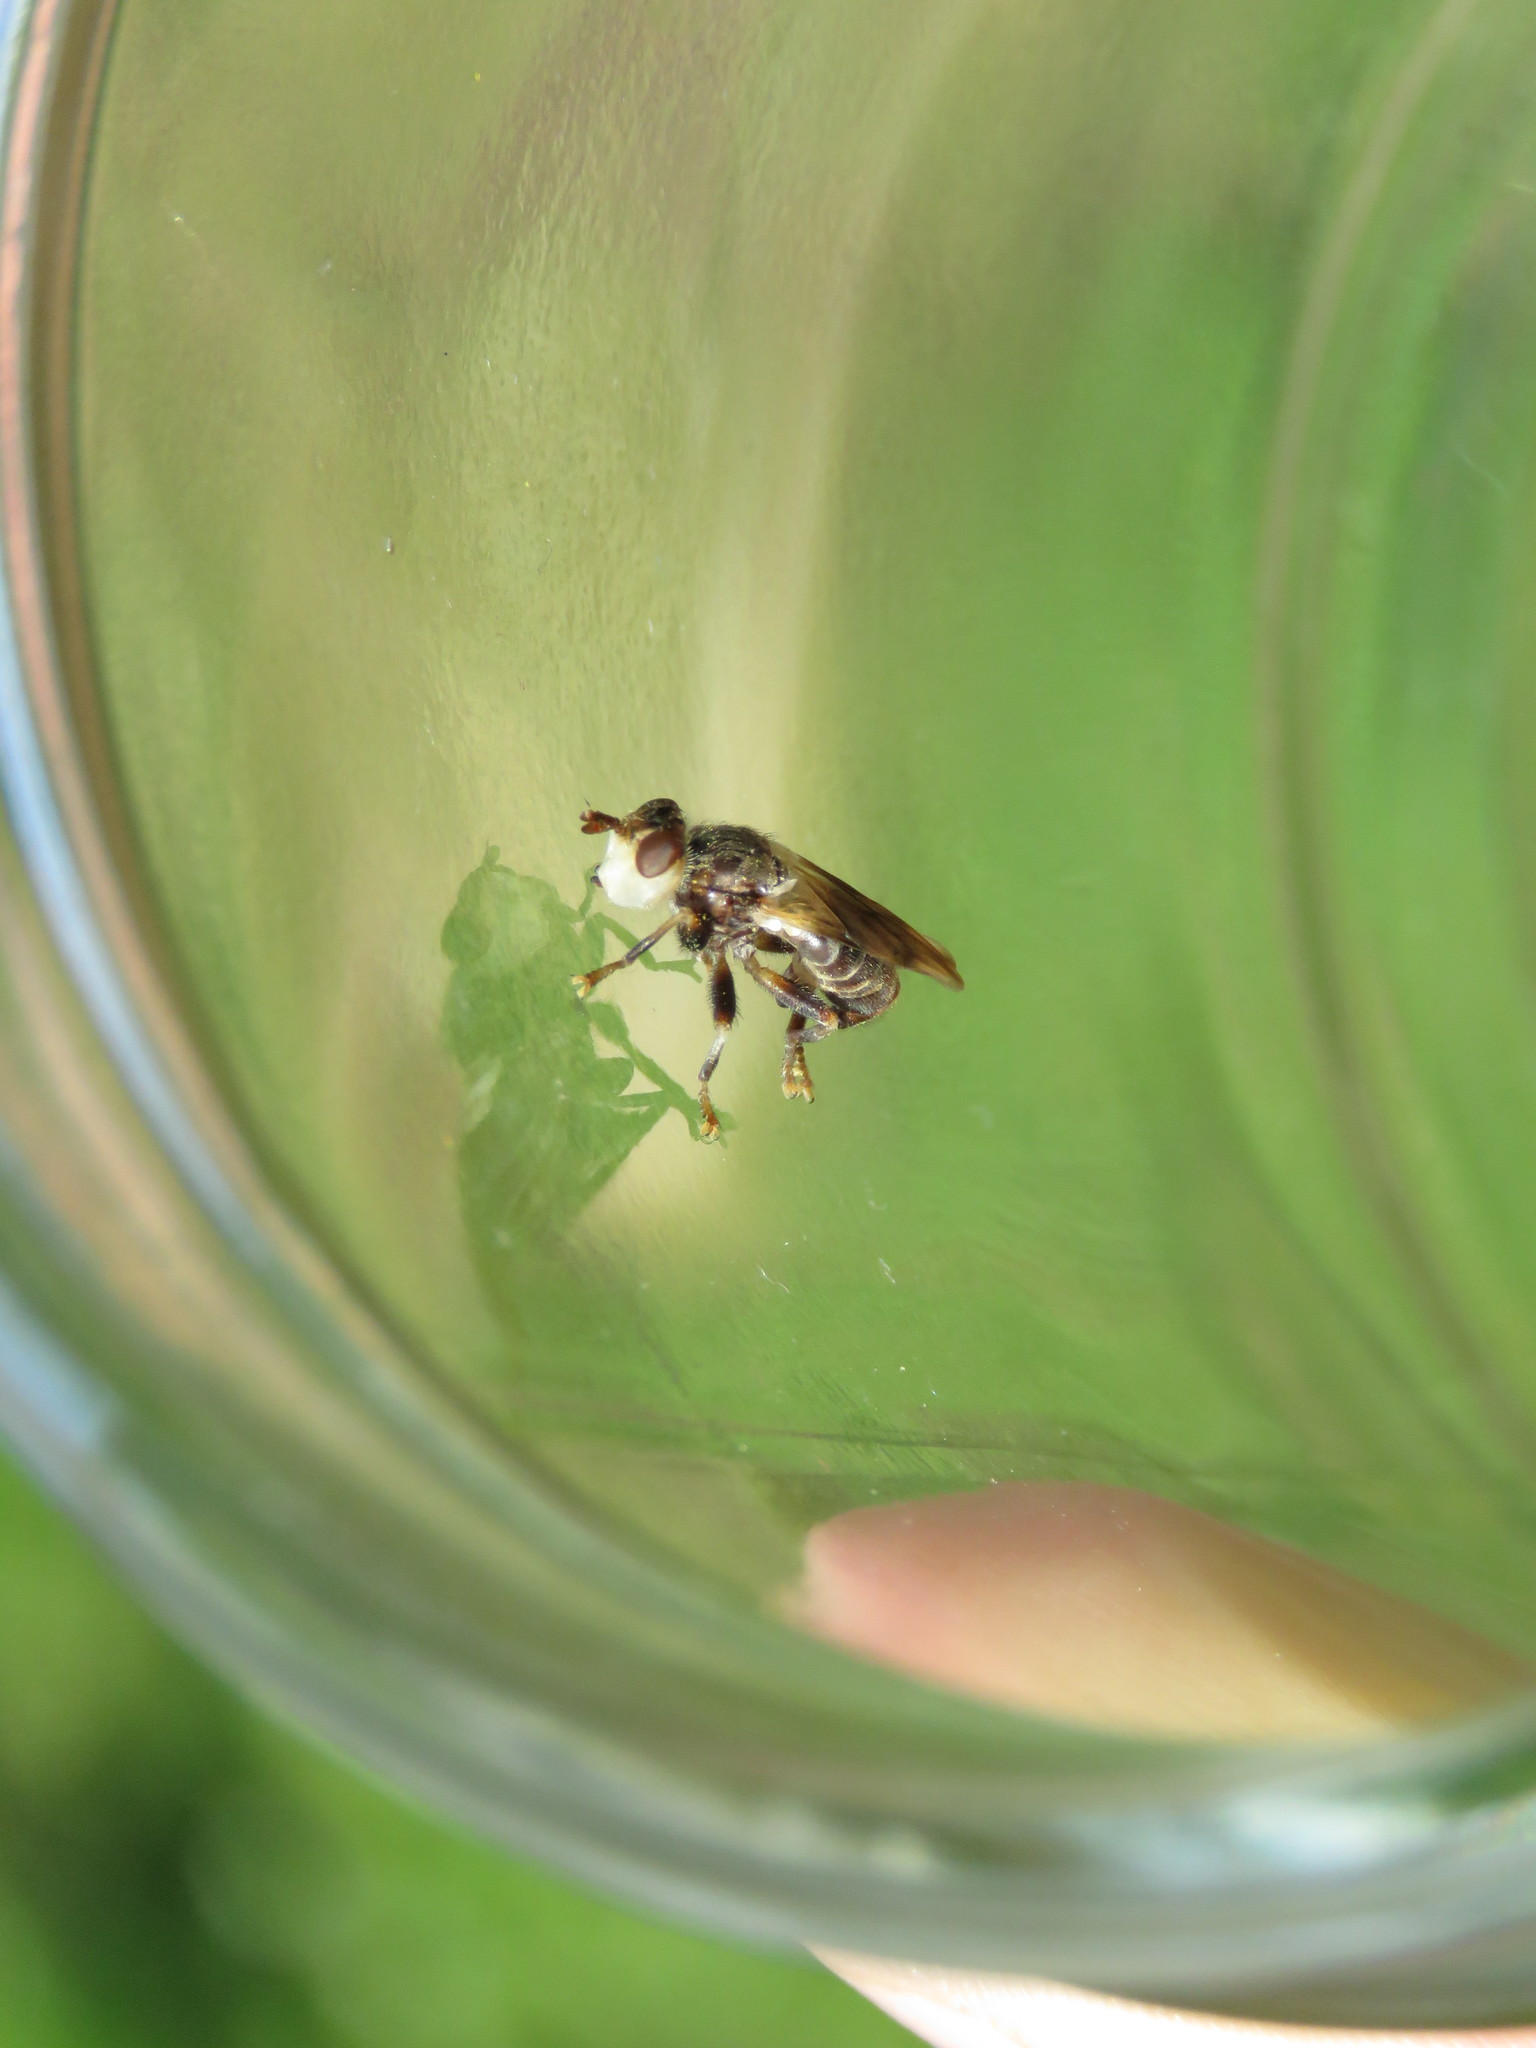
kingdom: Animalia
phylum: Arthropoda
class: Insecta
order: Diptera
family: Conopidae
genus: Myopa
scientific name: Myopa vesiculosa
